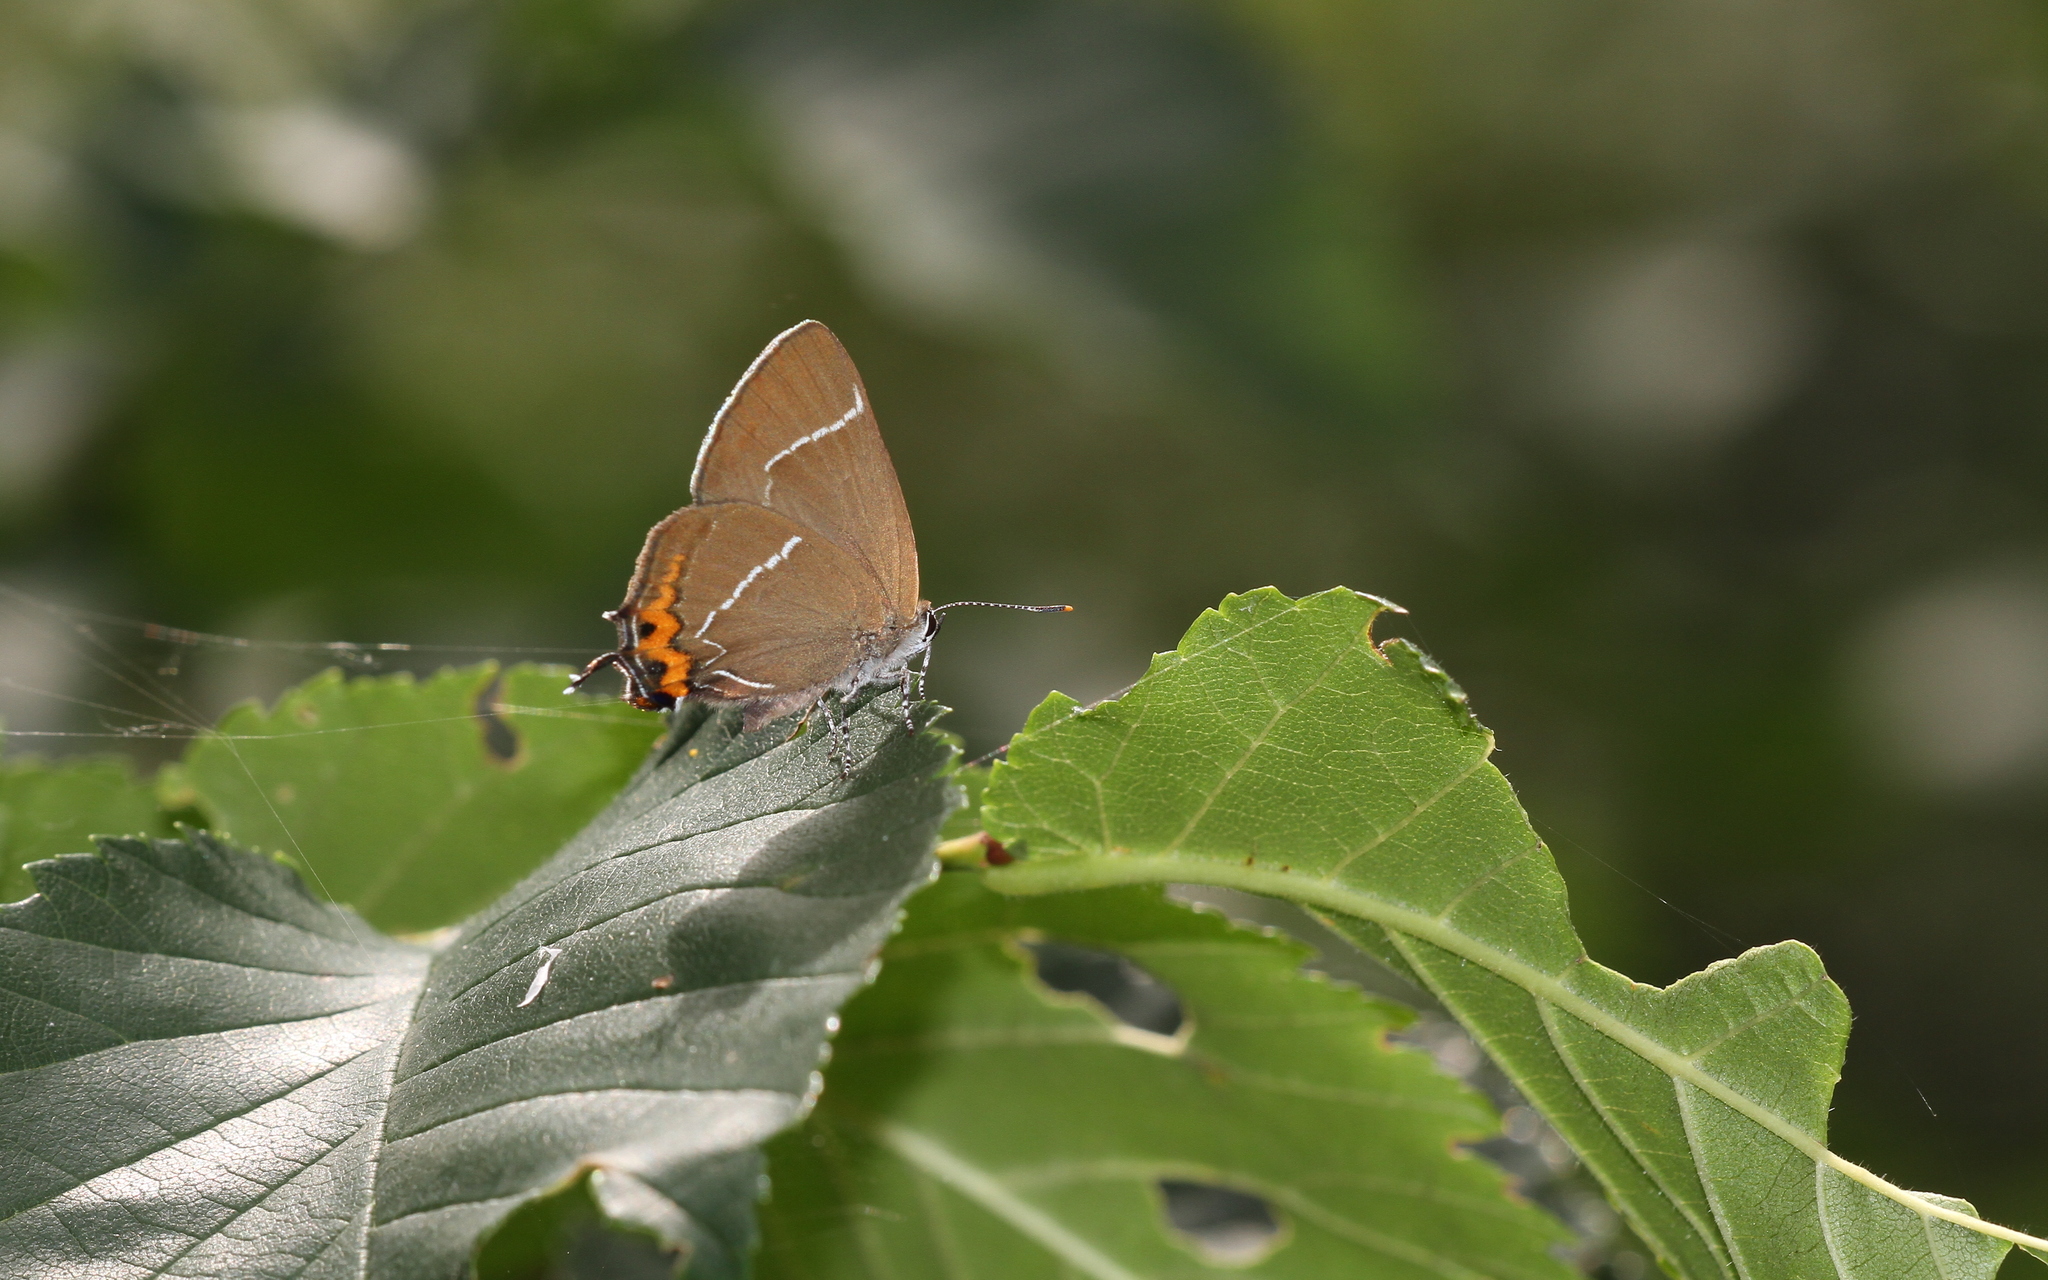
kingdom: Animalia
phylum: Arthropoda
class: Insecta
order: Lepidoptera
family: Lycaenidae
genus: Satyrium
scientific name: Satyrium w-album
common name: White-letter hairstreak
